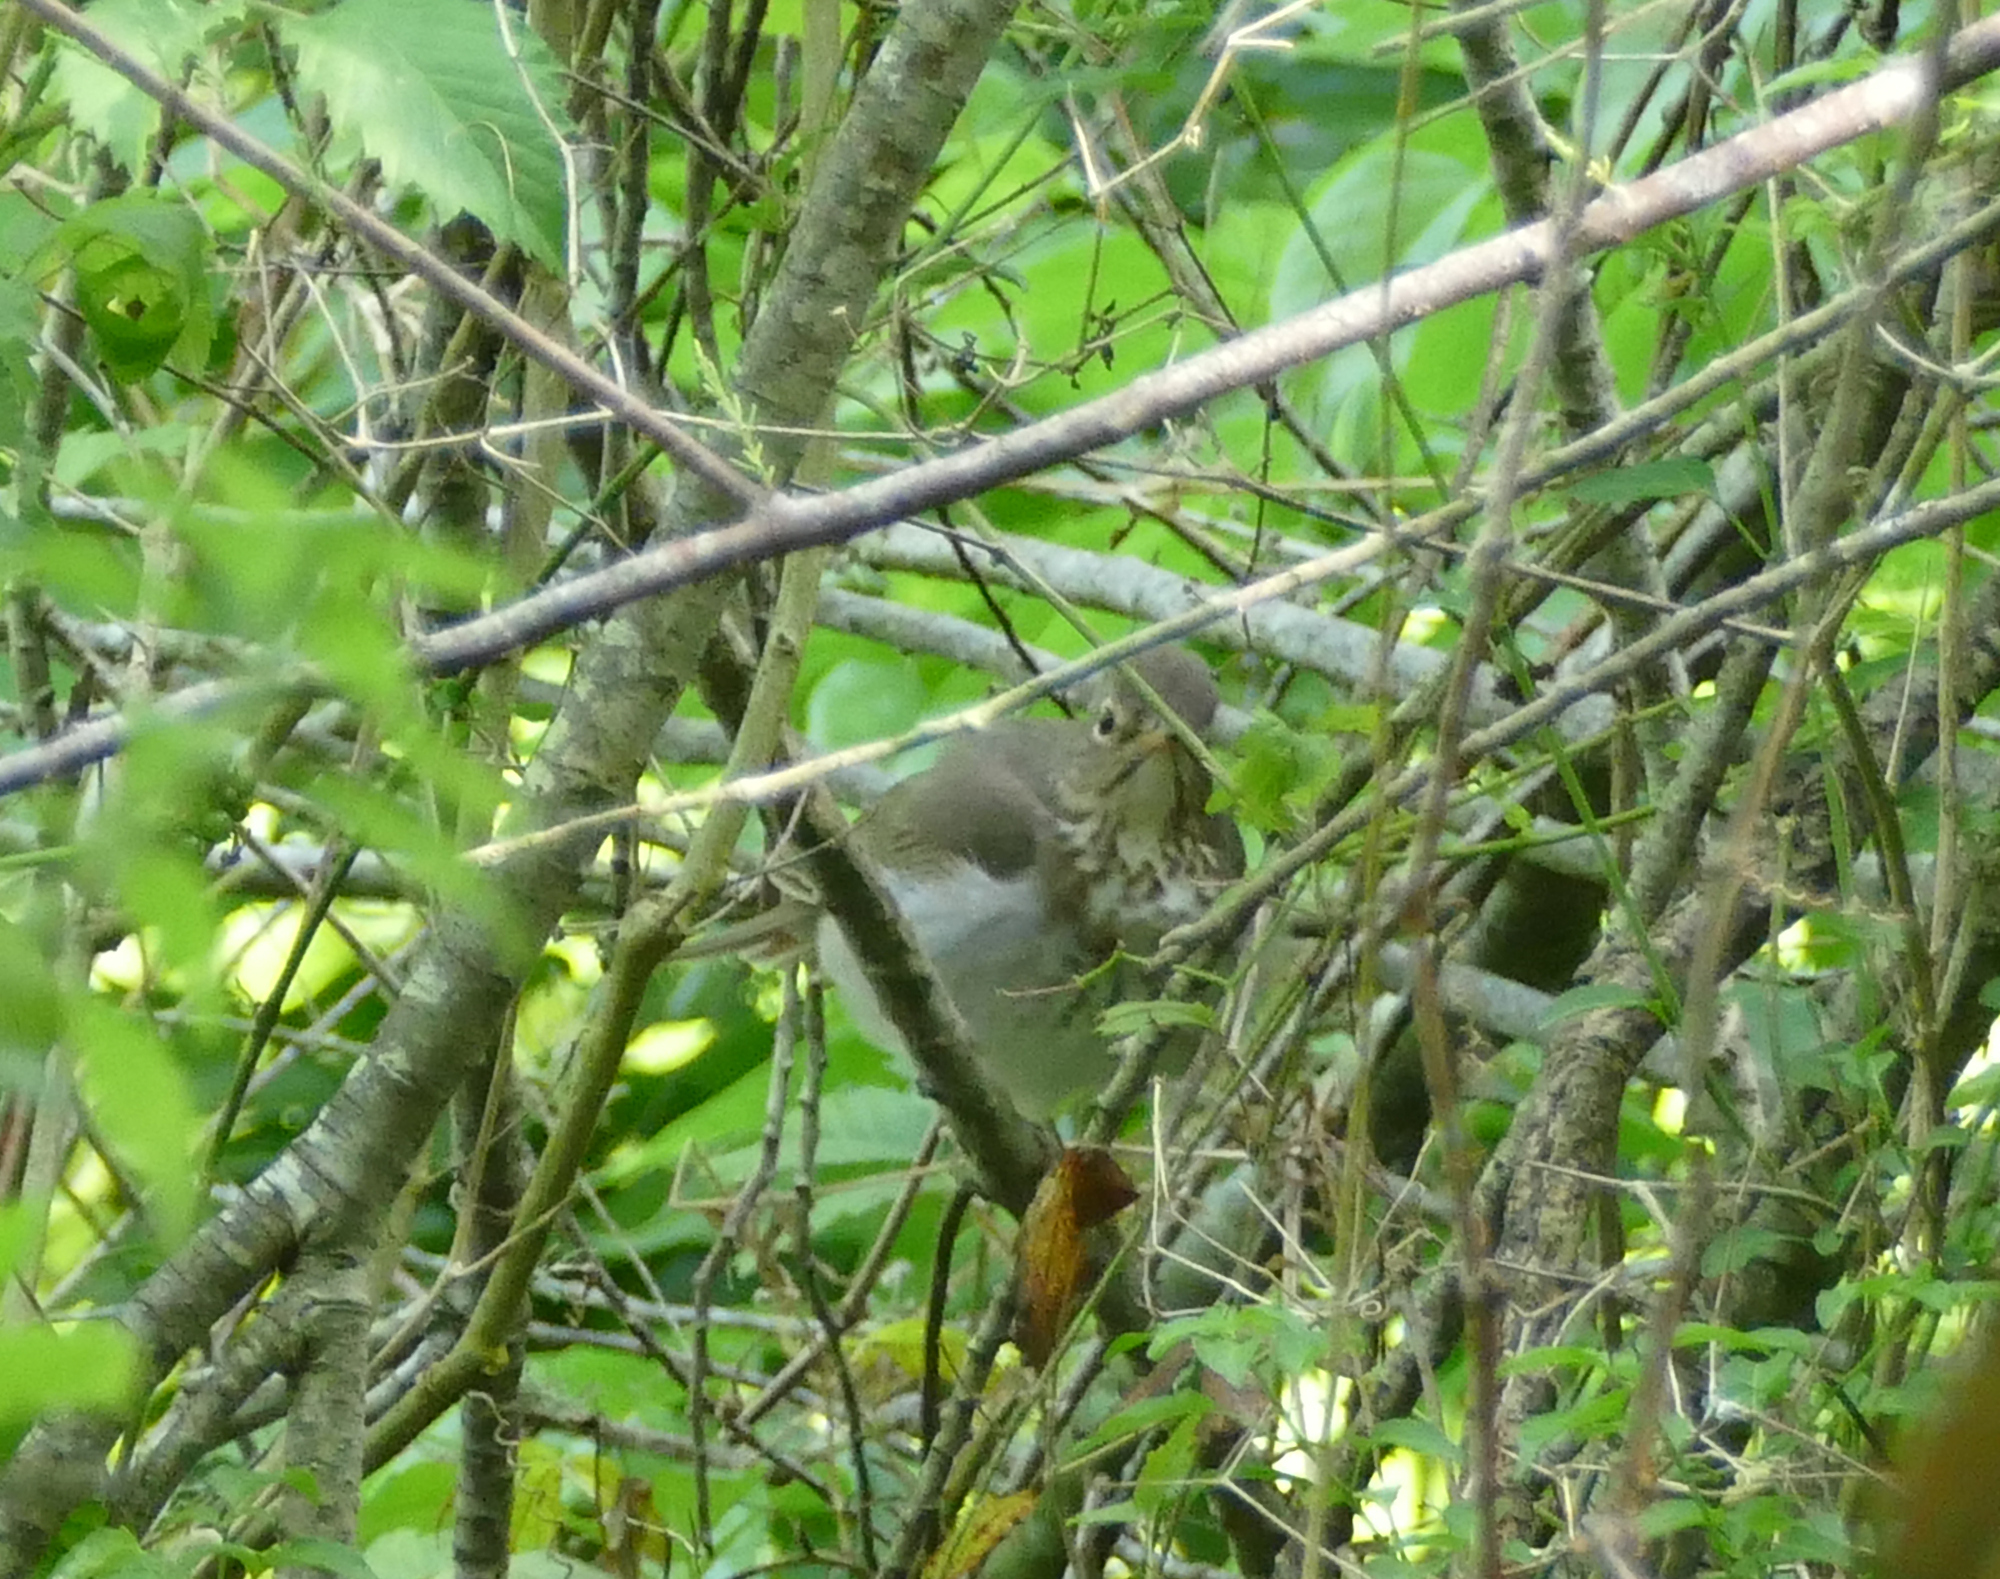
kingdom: Animalia
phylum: Chordata
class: Aves
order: Passeriformes
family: Turdidae
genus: Catharus
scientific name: Catharus ustulatus
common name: Swainson's thrush
